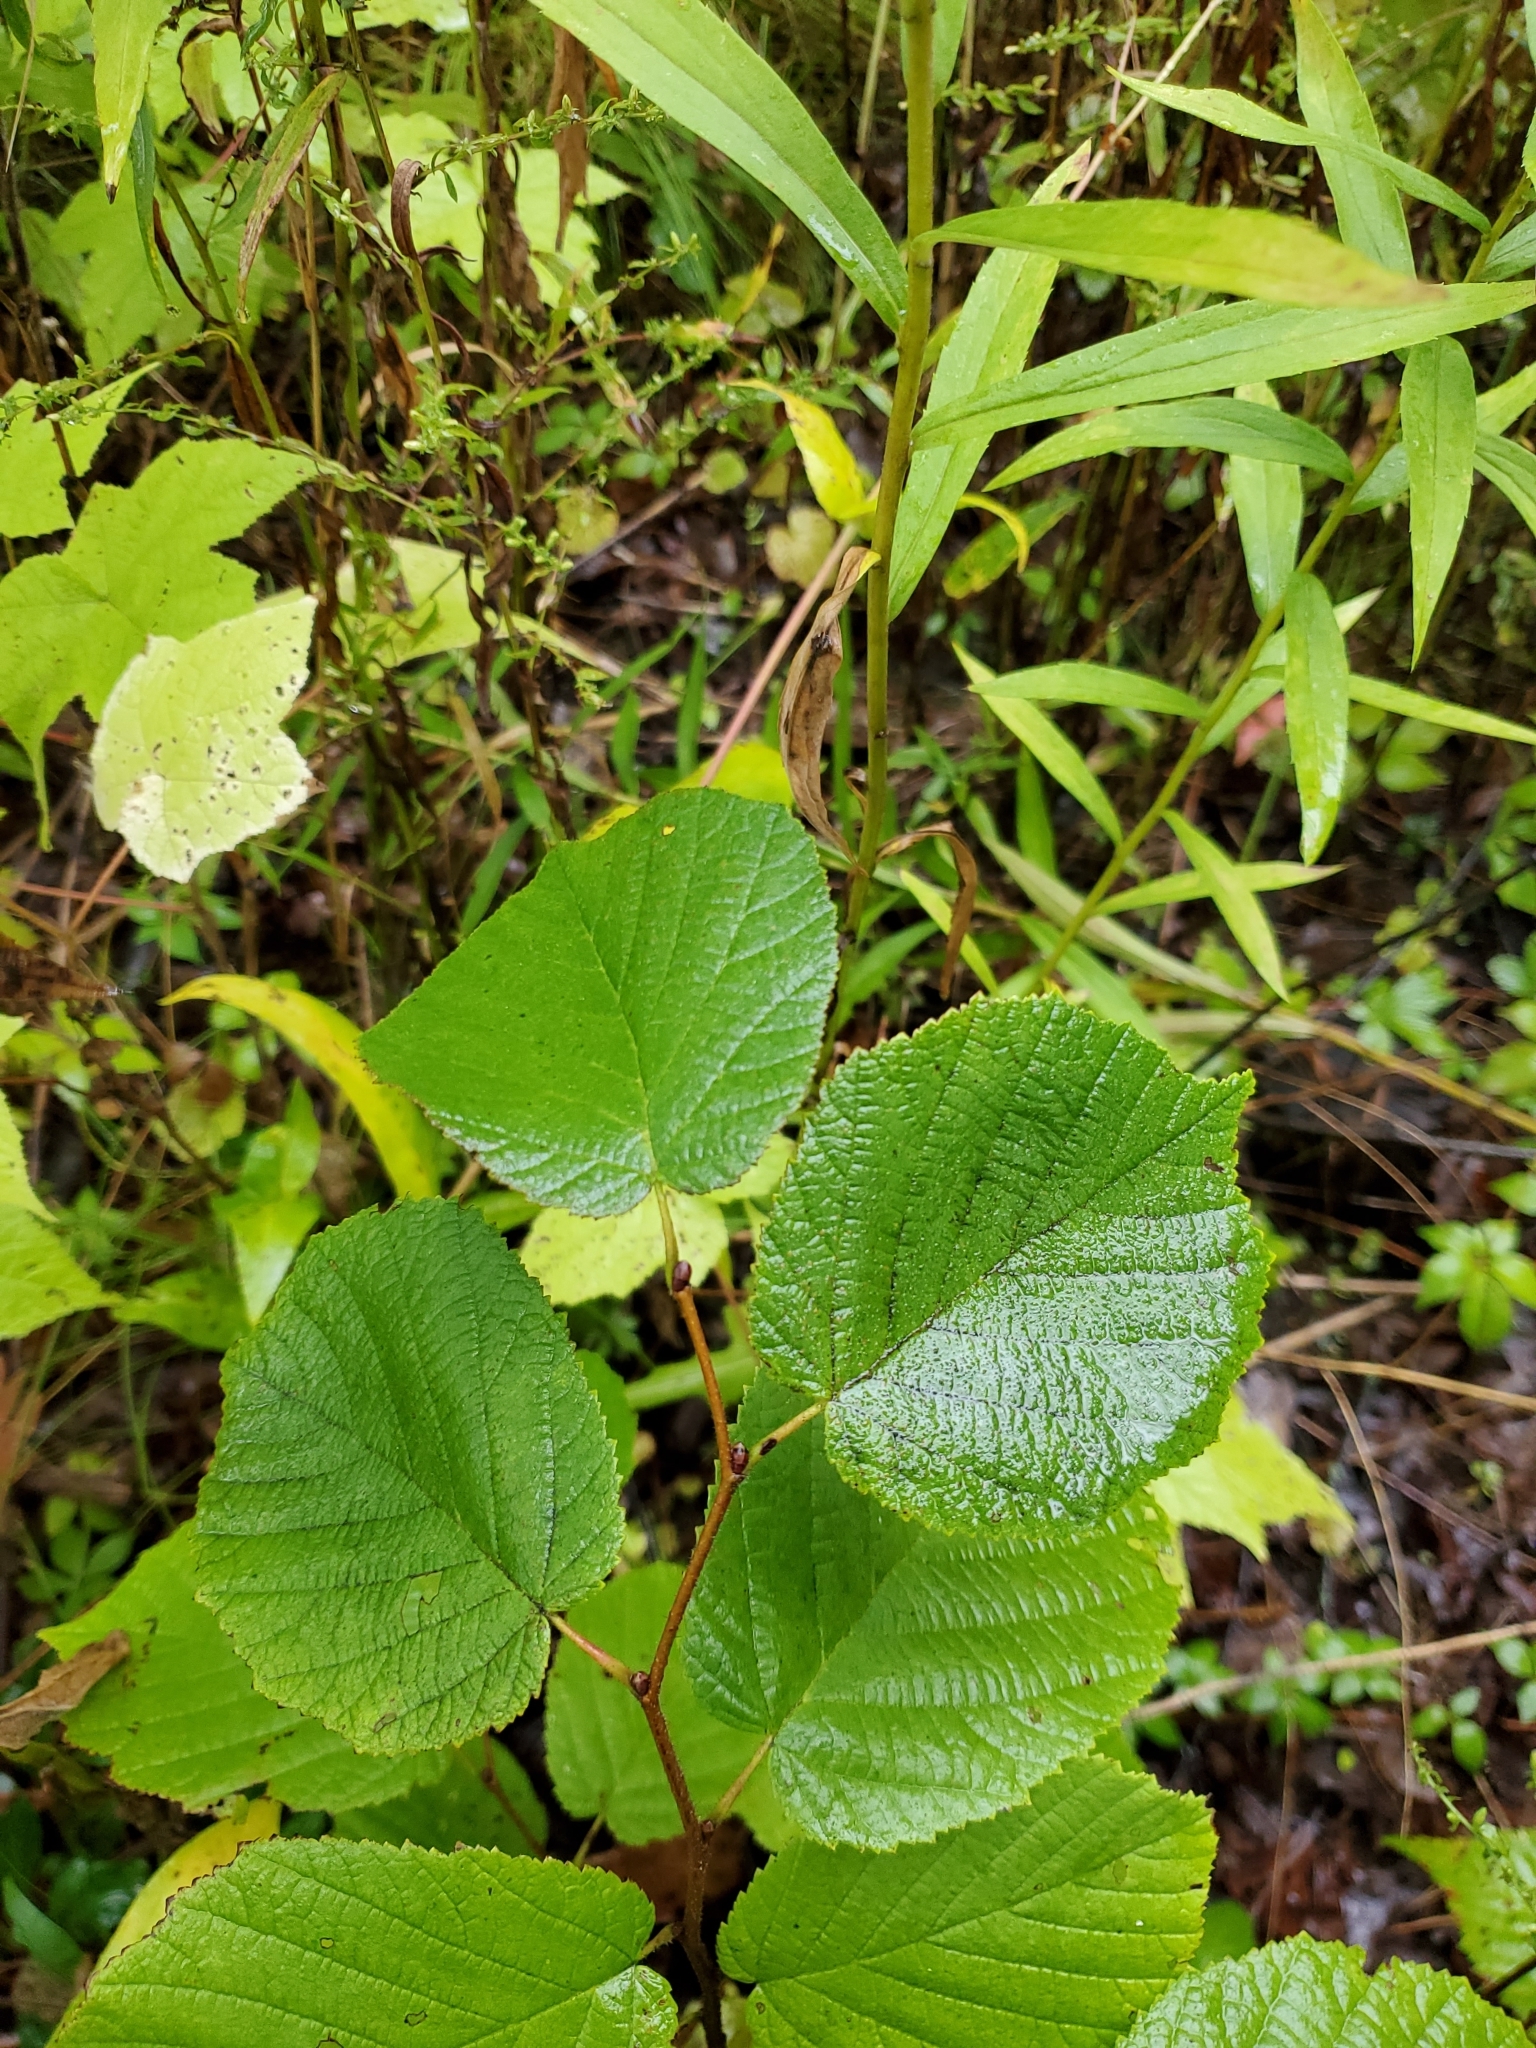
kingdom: Plantae
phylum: Tracheophyta
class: Magnoliopsida
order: Fagales
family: Betulaceae
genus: Corylus
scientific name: Corylus americana
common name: American hazel
